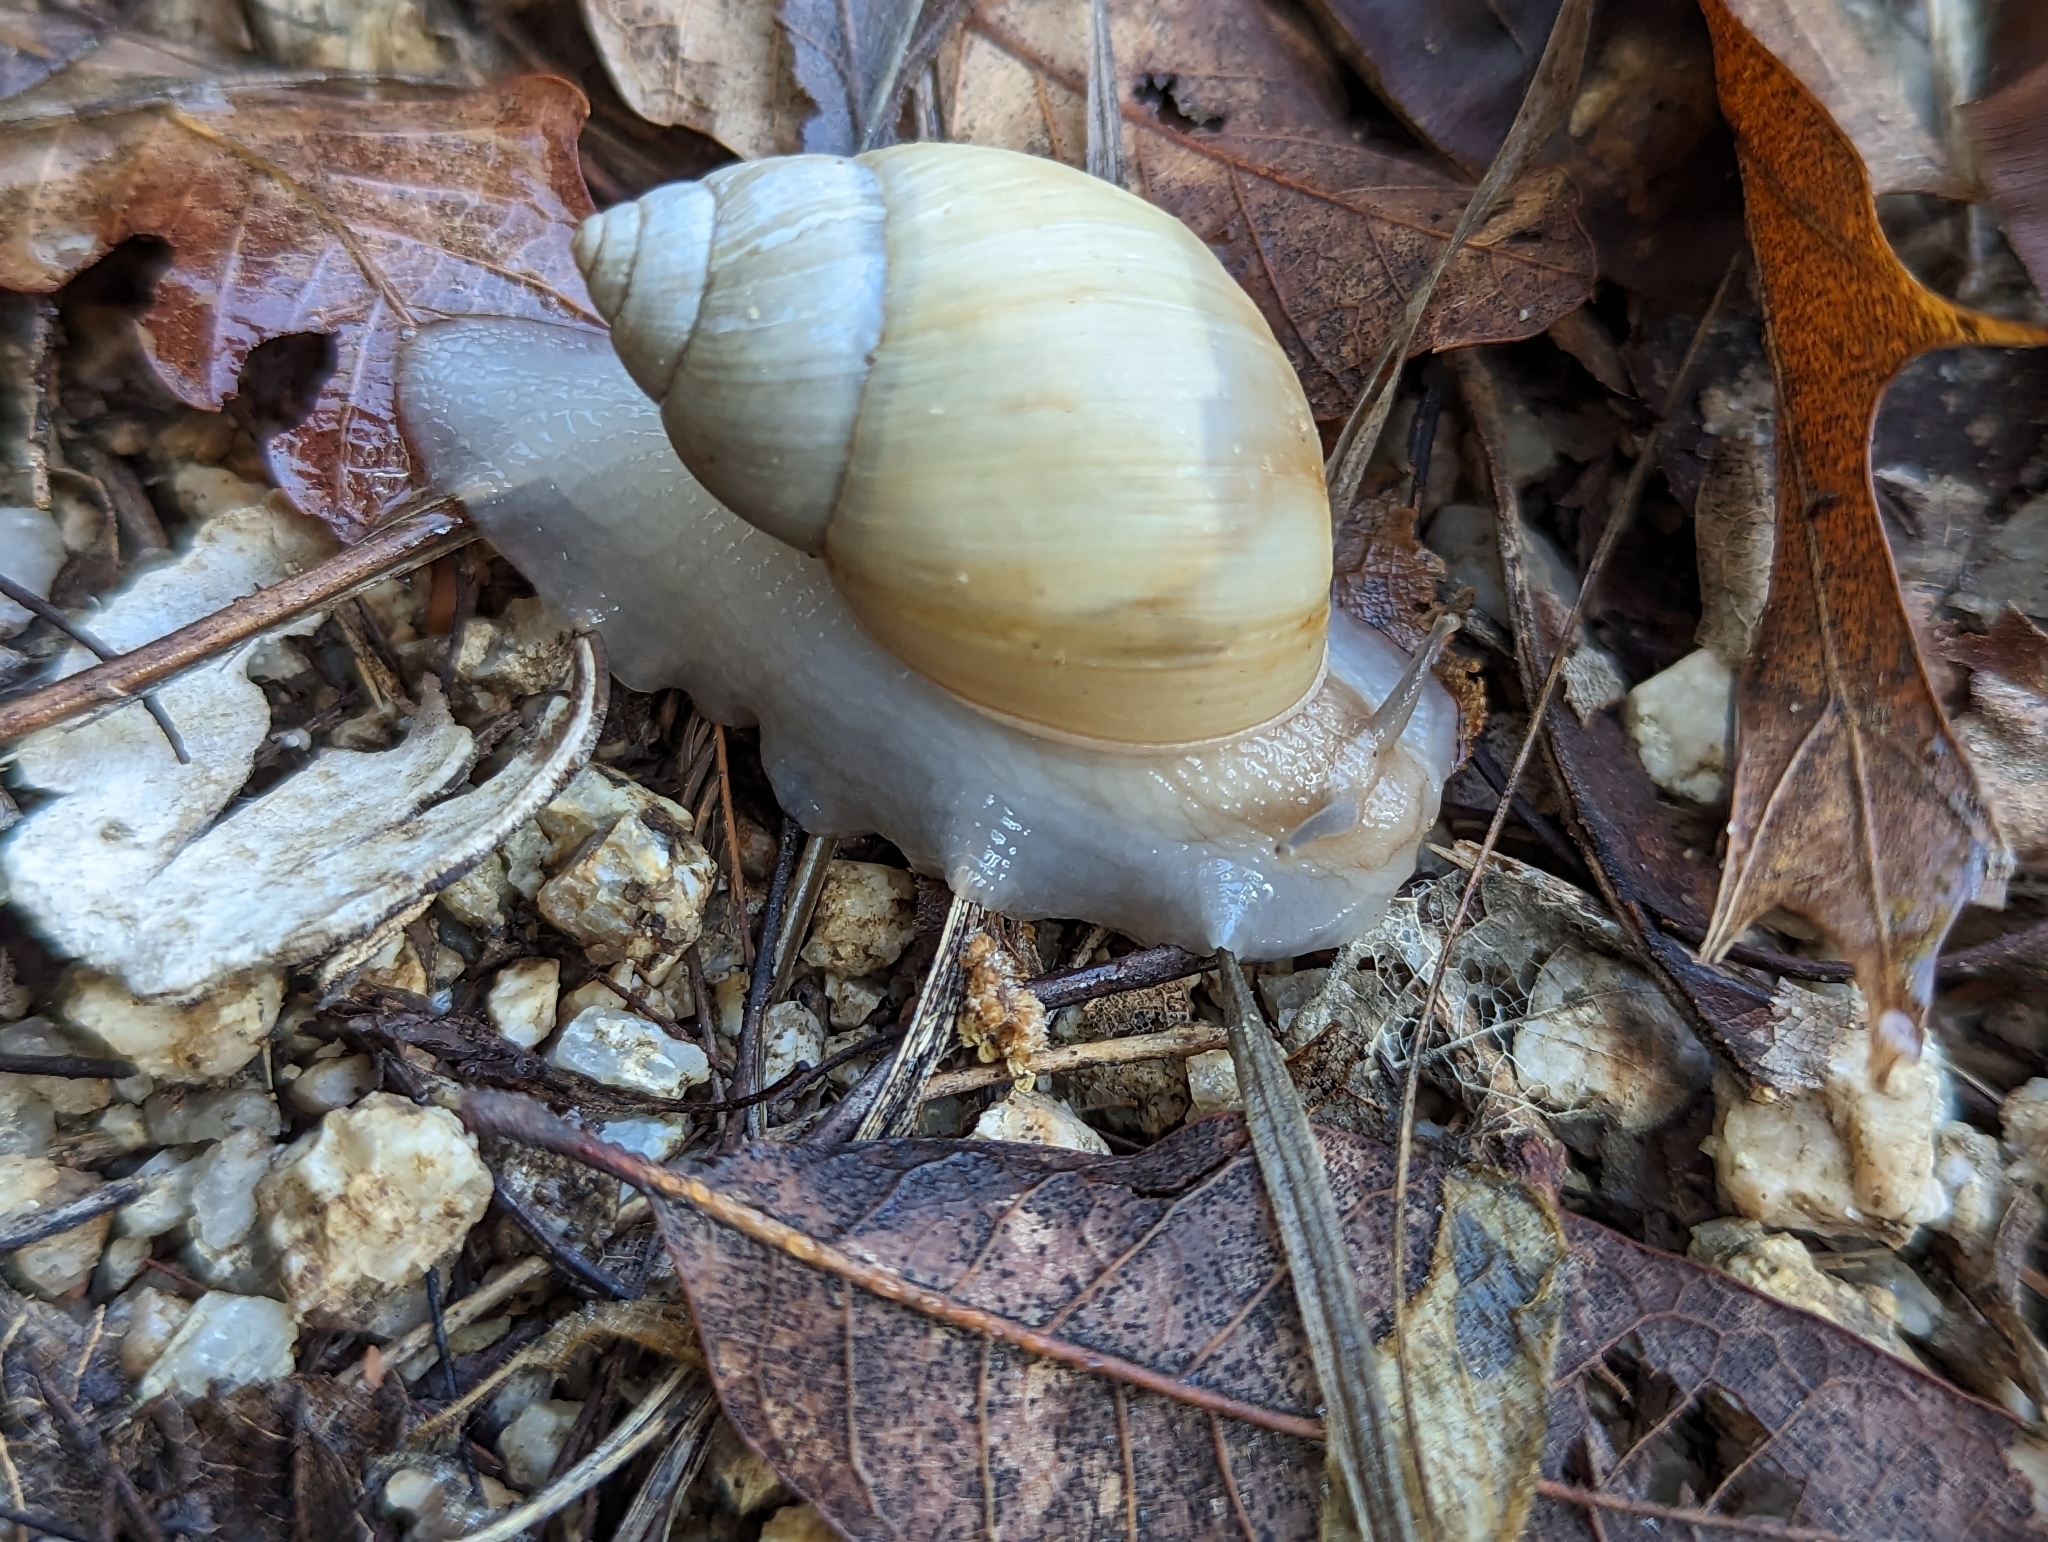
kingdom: Animalia
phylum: Mollusca
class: Gastropoda
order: Stylommatophora
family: Bulimulidae
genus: Rabdotus
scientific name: Rabdotus sufflatus
